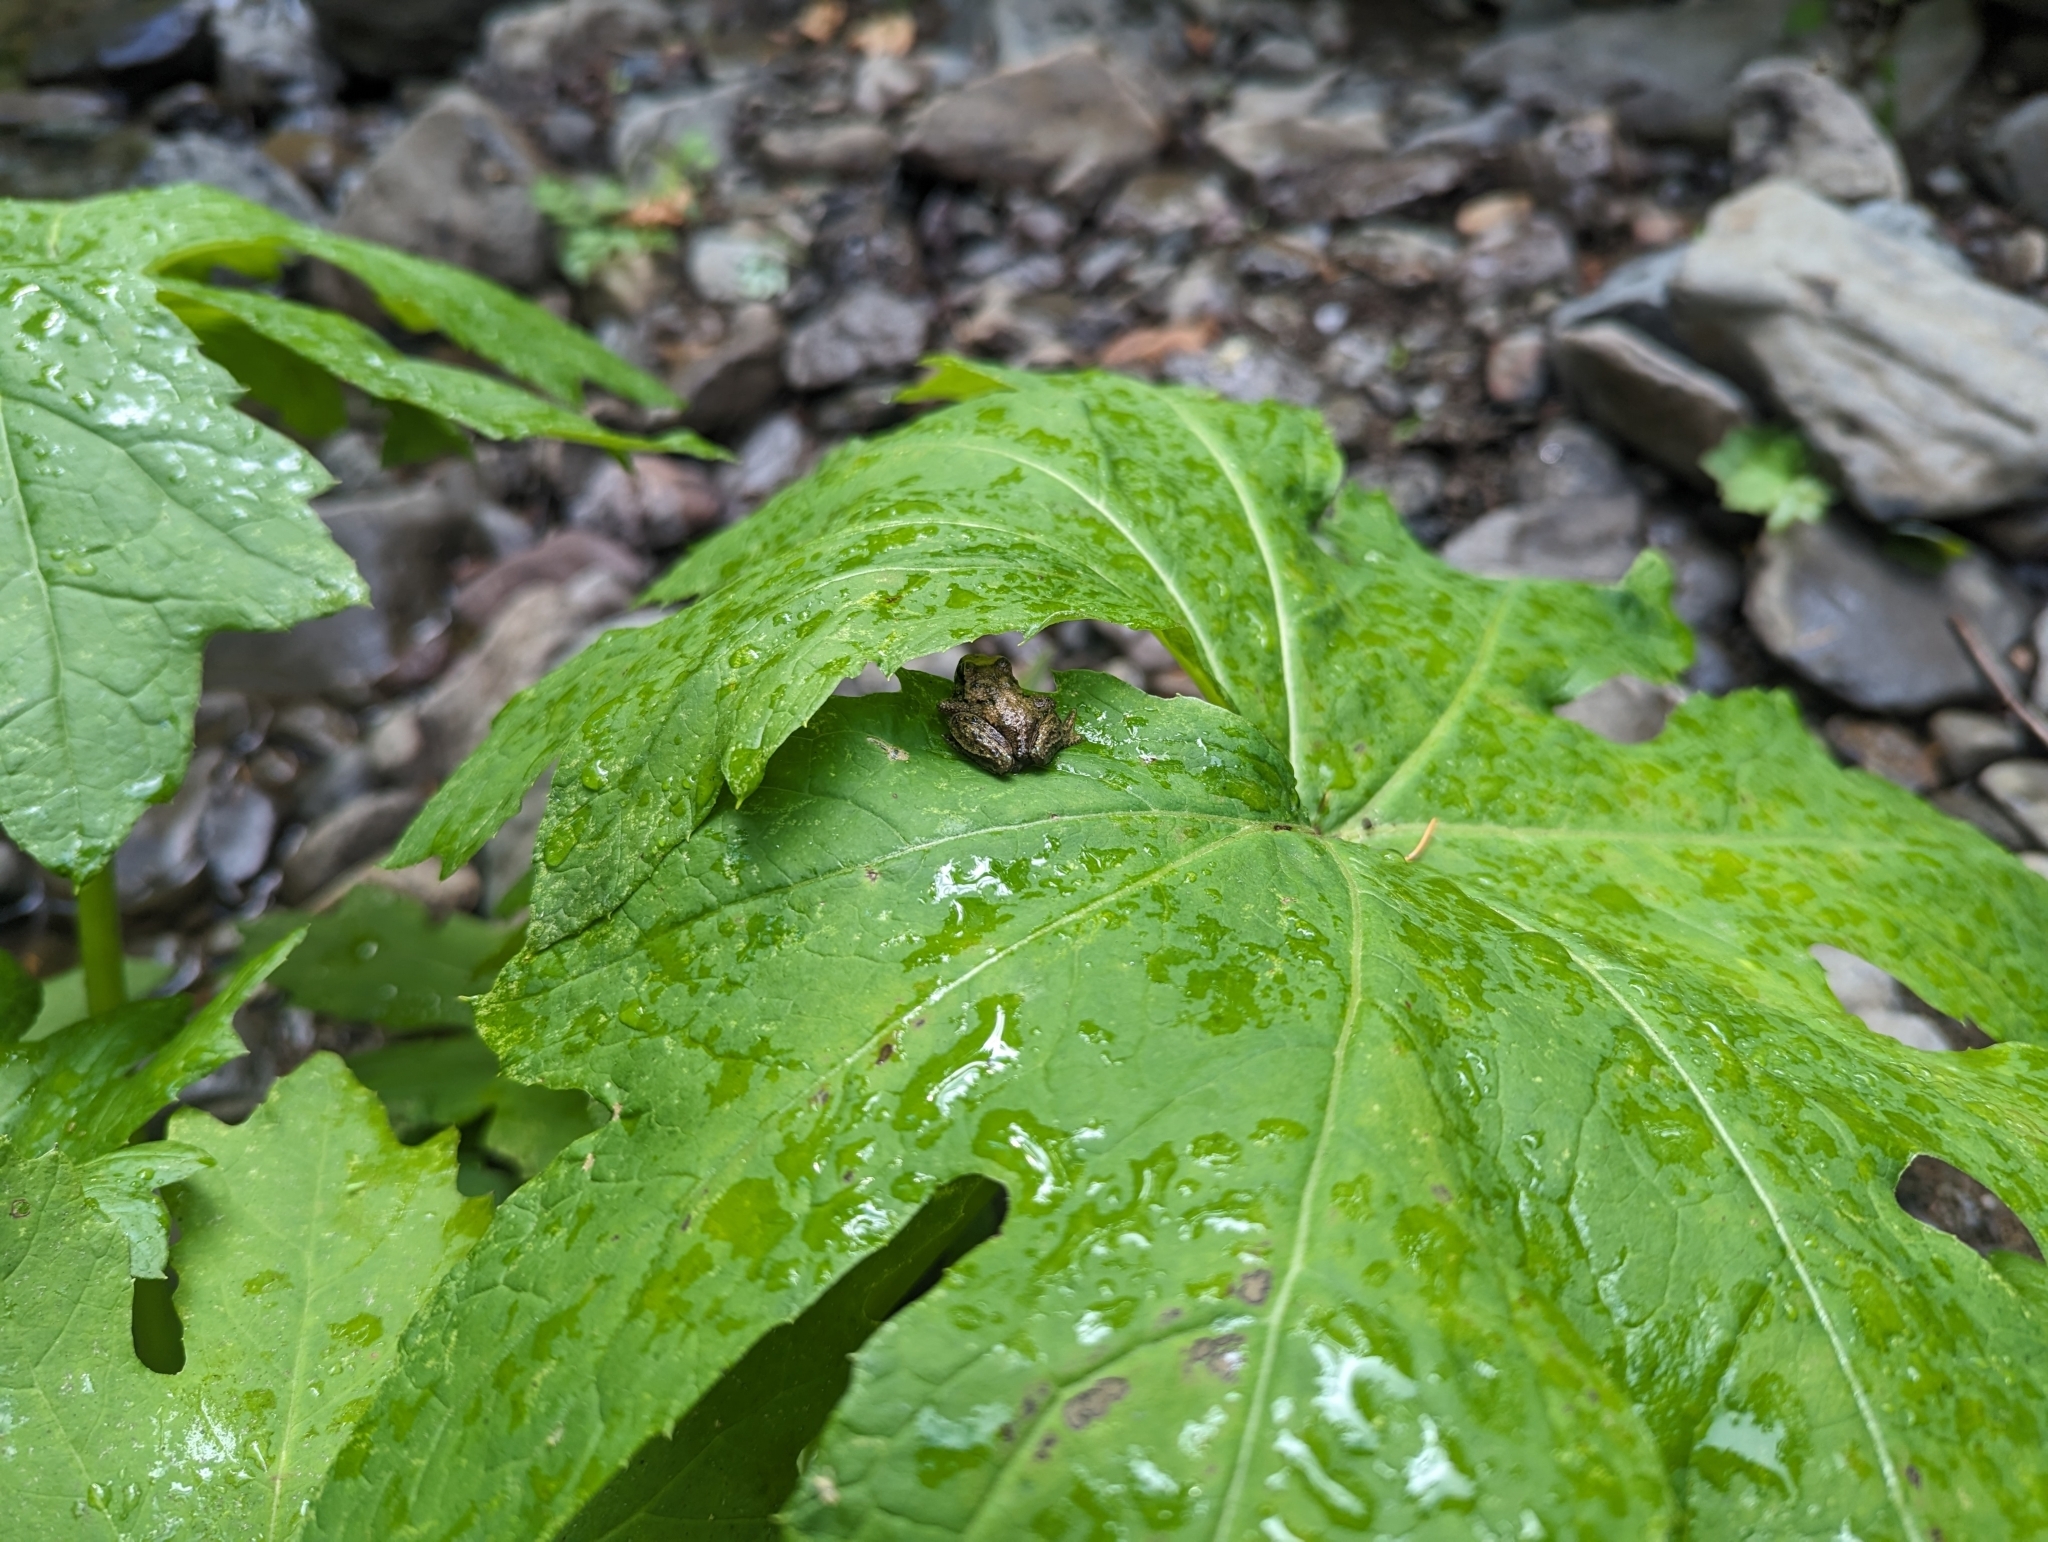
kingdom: Animalia
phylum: Chordata
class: Amphibia
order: Anura
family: Ascaphidae
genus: Ascaphus
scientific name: Ascaphus truei
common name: Tailed frog
